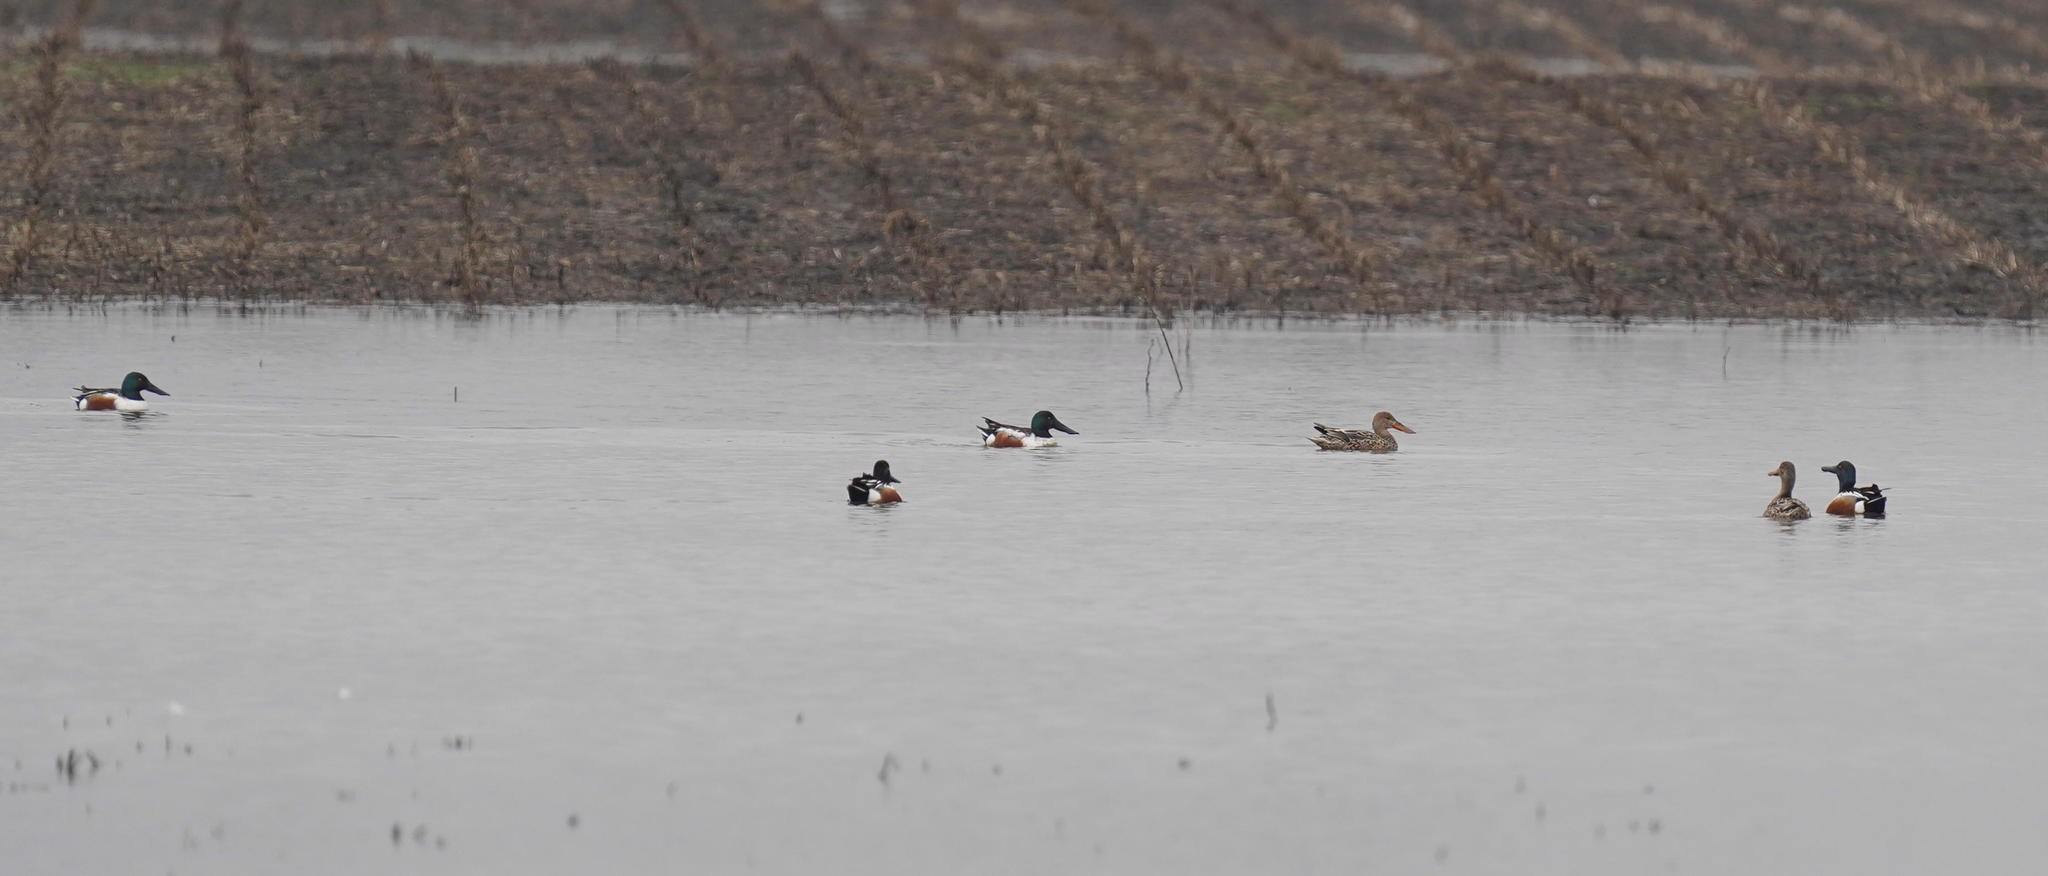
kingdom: Animalia
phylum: Chordata
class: Aves
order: Anseriformes
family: Anatidae
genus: Spatula
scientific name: Spatula clypeata
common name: Northern shoveler
